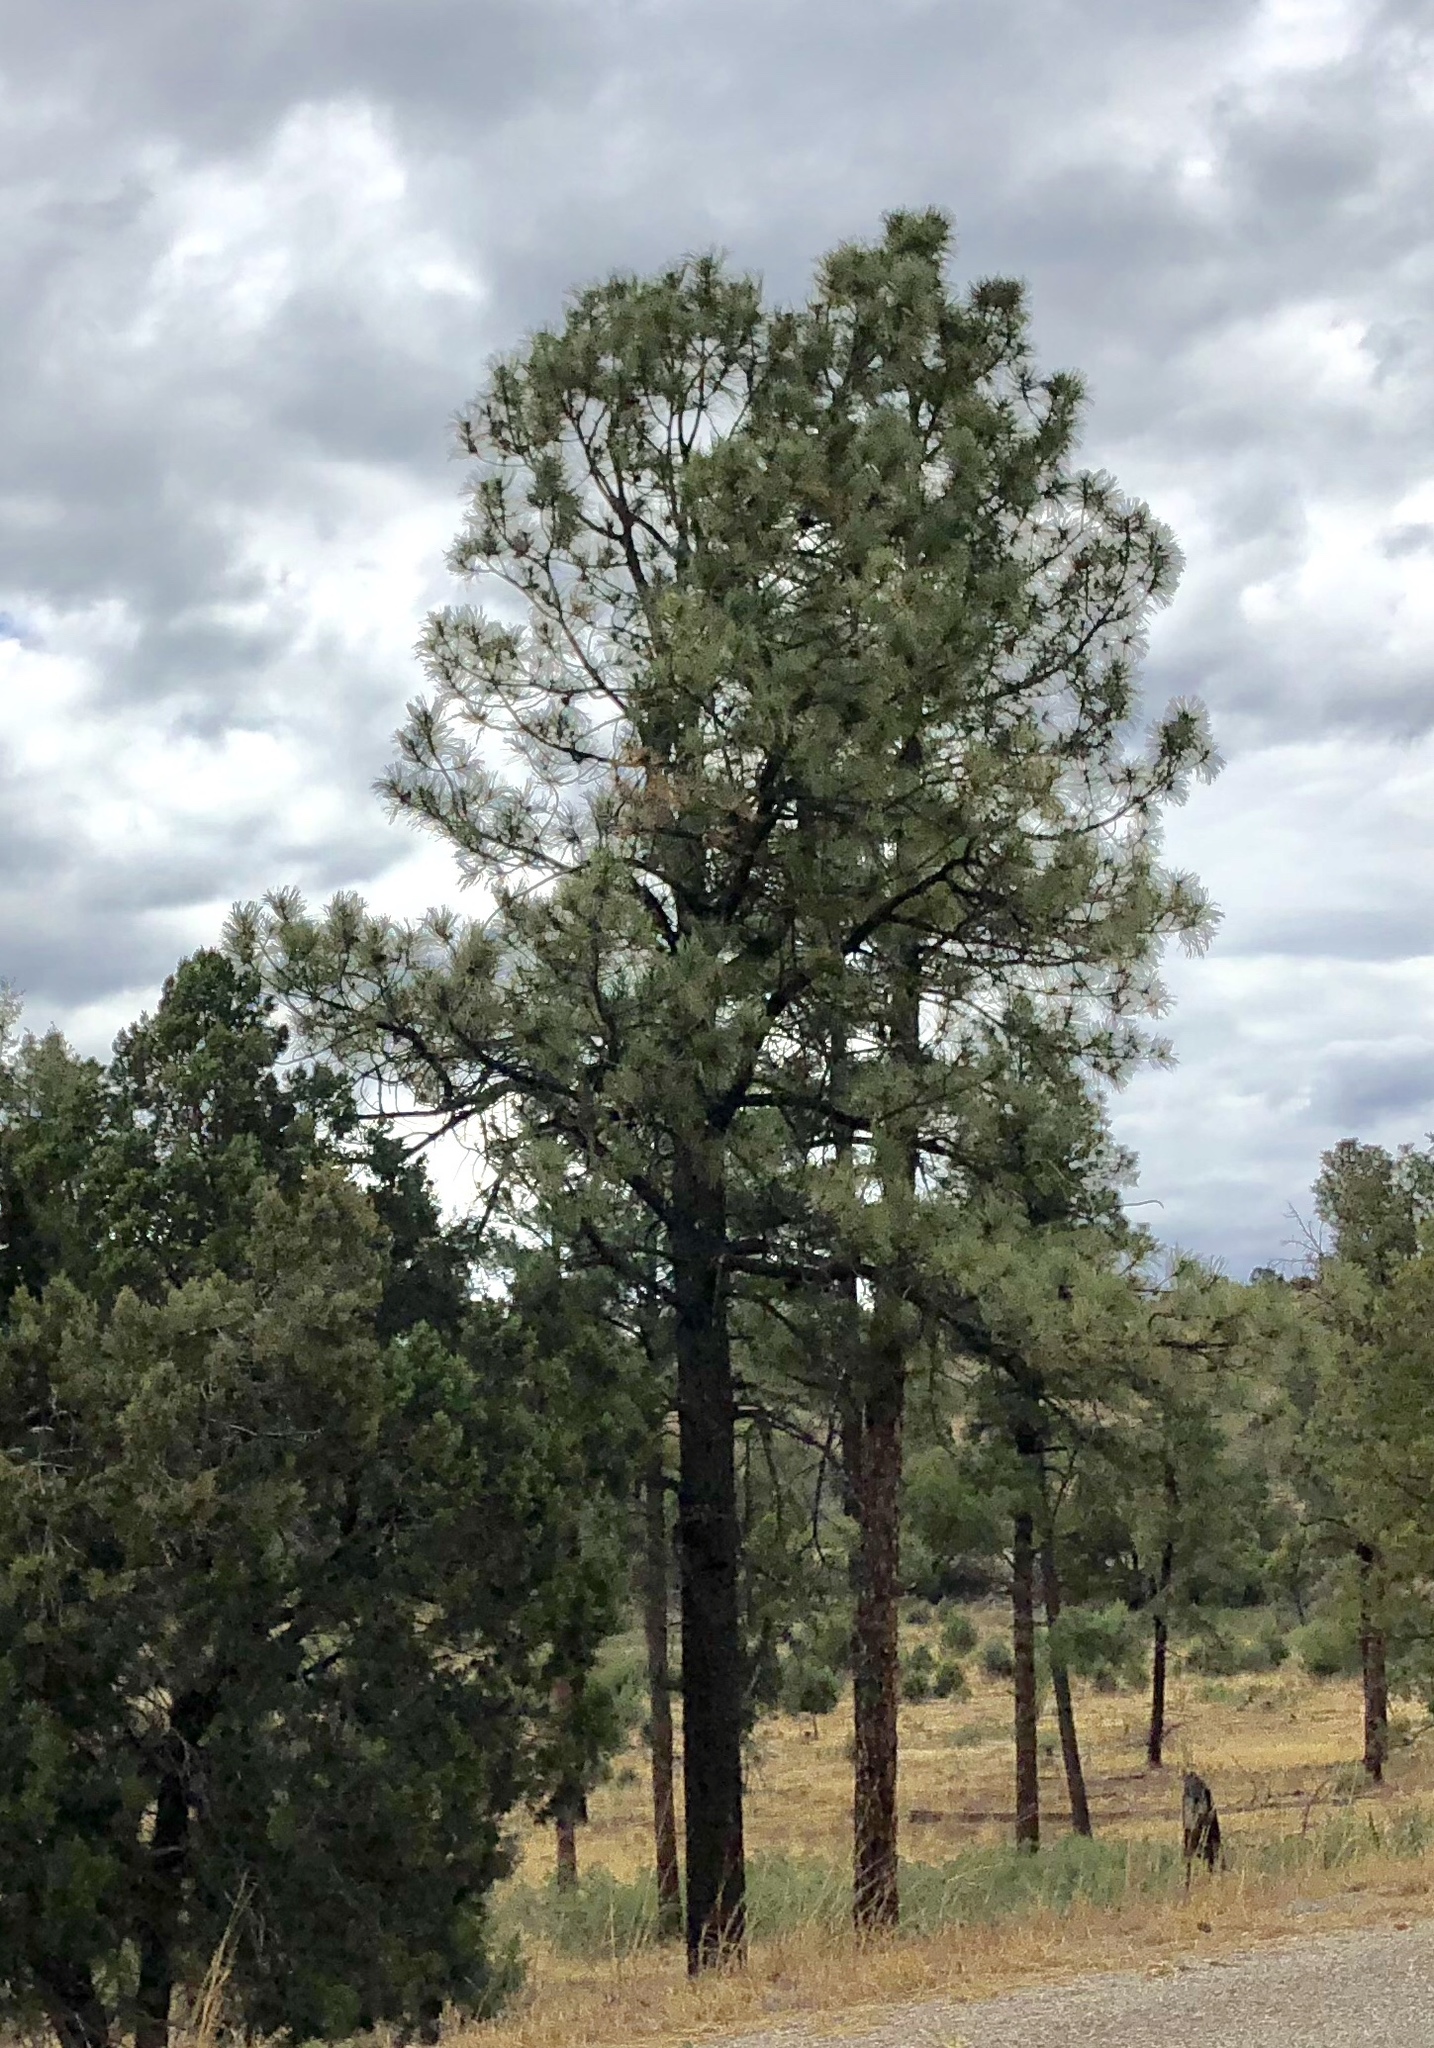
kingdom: Plantae
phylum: Tracheophyta
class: Pinopsida
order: Pinales
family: Pinaceae
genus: Pinus
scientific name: Pinus ponderosa
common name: Western yellow-pine
